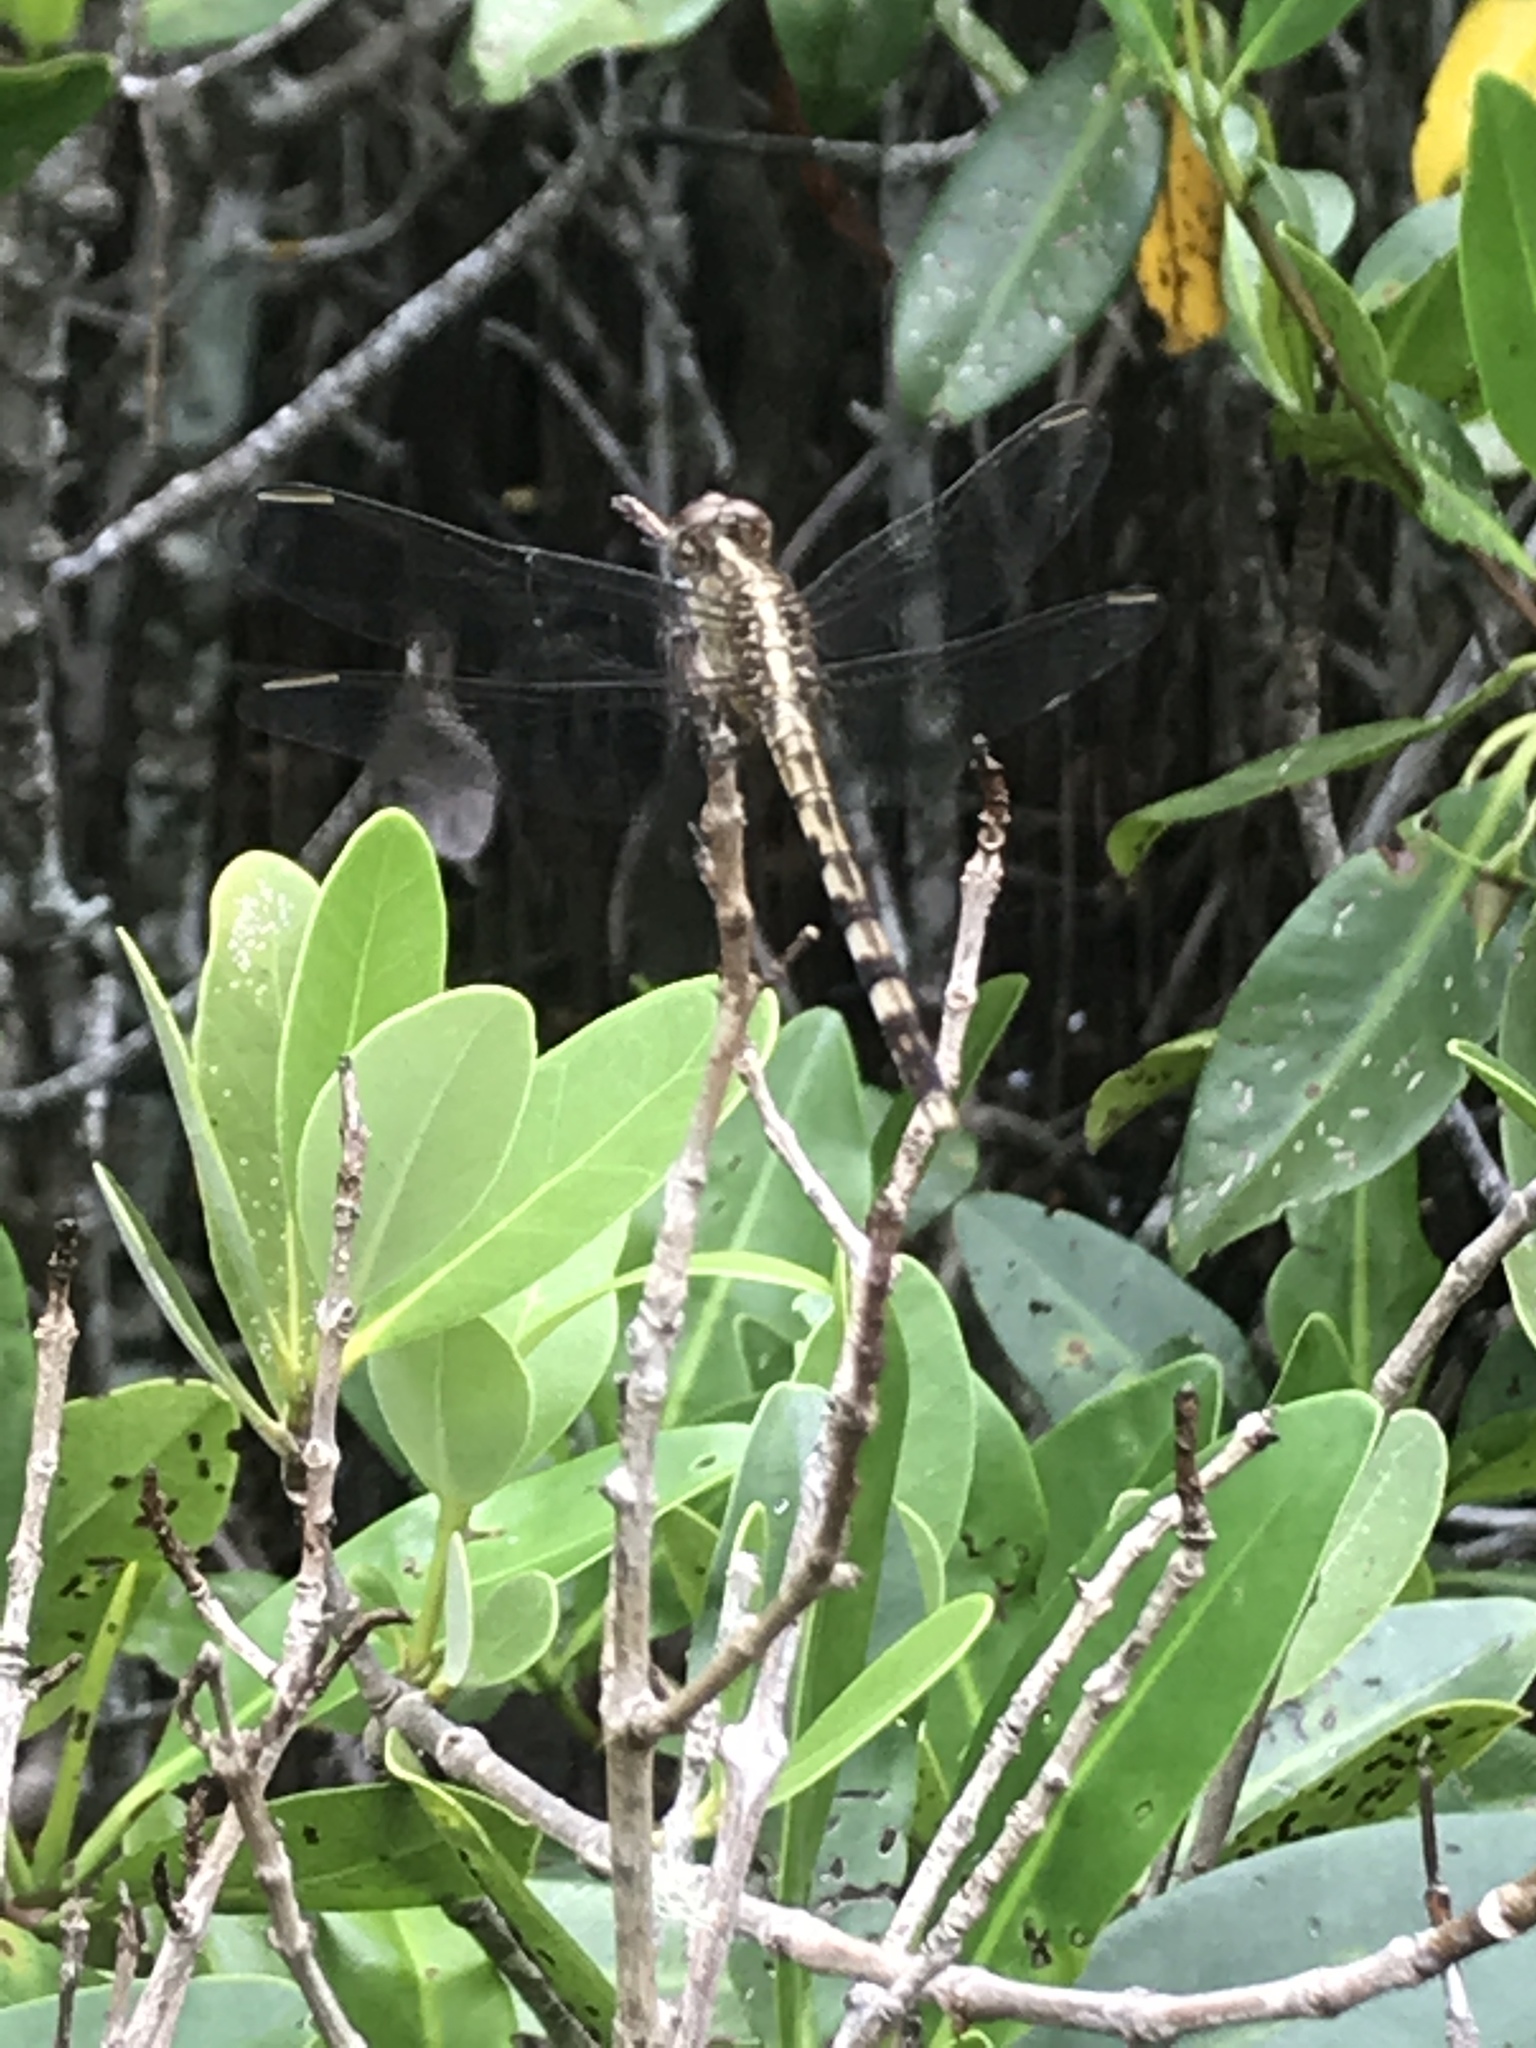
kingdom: Animalia
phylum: Arthropoda
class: Insecta
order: Odonata
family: Libellulidae
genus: Erythrodiplax
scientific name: Erythrodiplax umbrata
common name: Band-winged dragonlet
